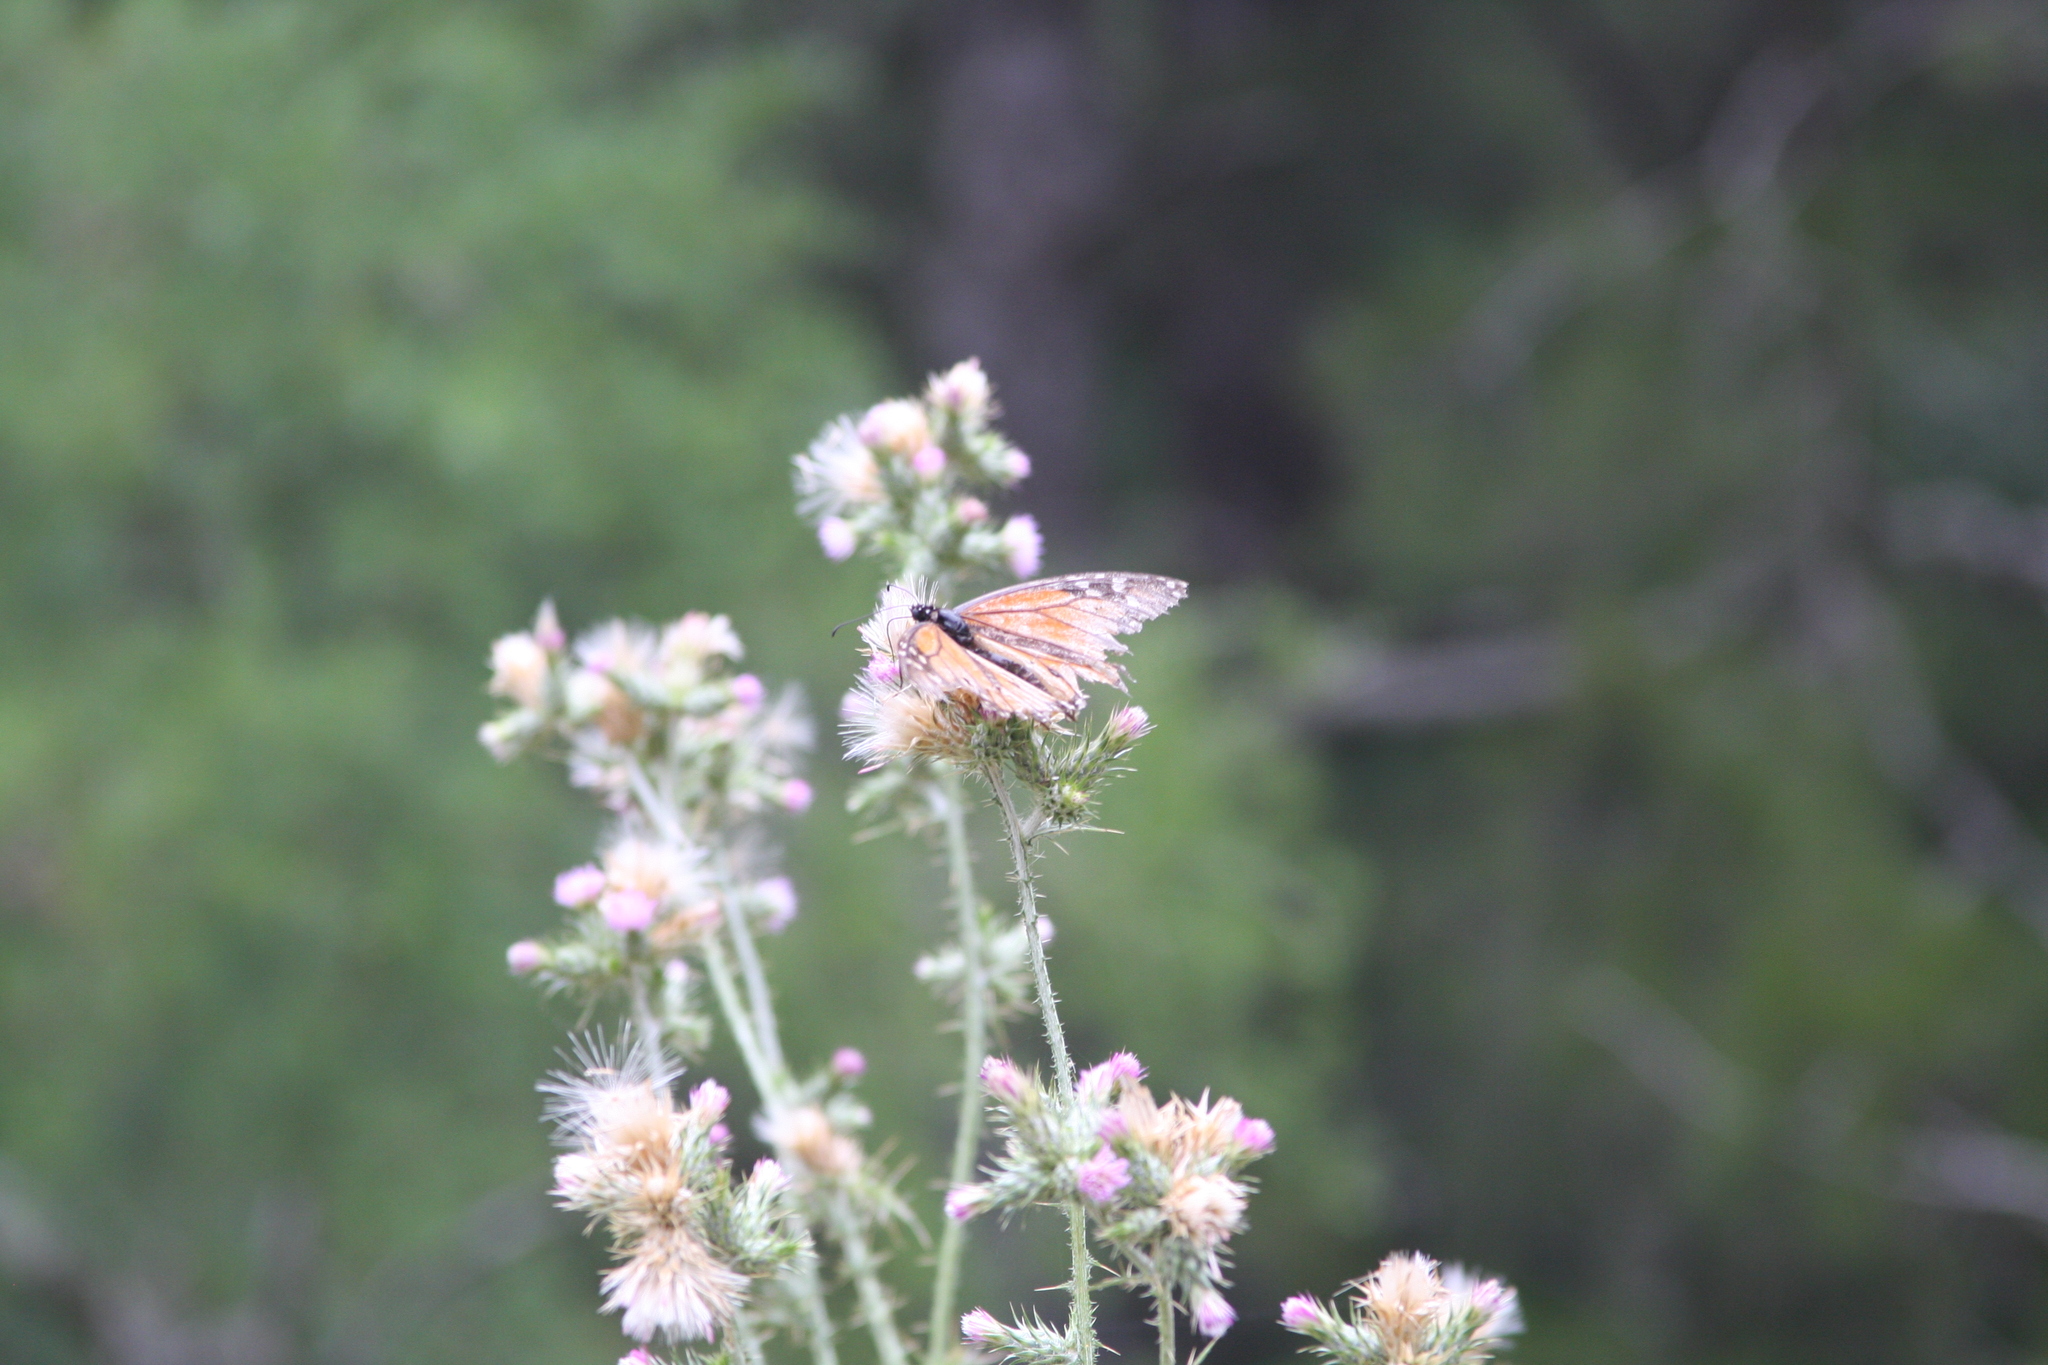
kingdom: Animalia
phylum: Arthropoda
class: Insecta
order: Lepidoptera
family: Nymphalidae
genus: Danaus
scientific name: Danaus plexippus
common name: Monarch
